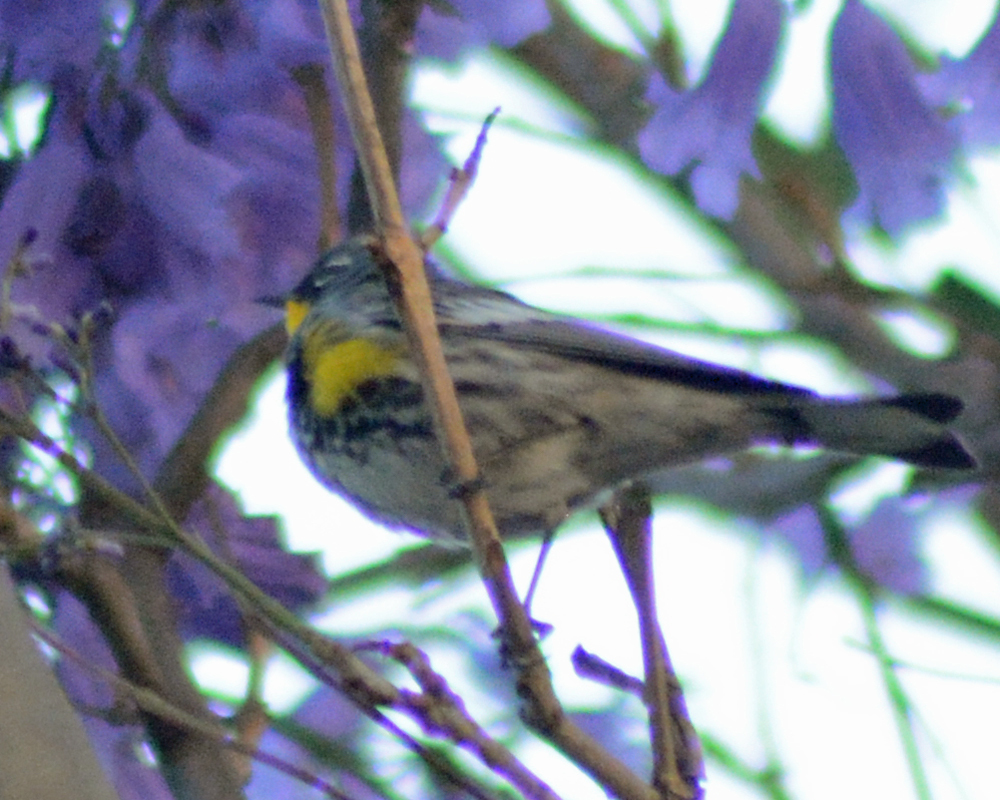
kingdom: Animalia
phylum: Chordata
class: Aves
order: Passeriformes
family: Parulidae
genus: Setophaga
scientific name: Setophaga auduboni
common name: Audubon's warbler
